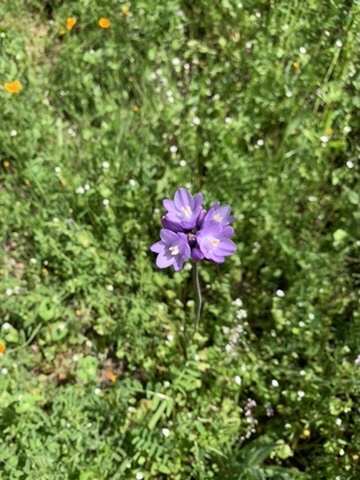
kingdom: Plantae
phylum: Tracheophyta
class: Liliopsida
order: Asparagales
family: Asparagaceae
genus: Dipterostemon
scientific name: Dipterostemon capitatus
